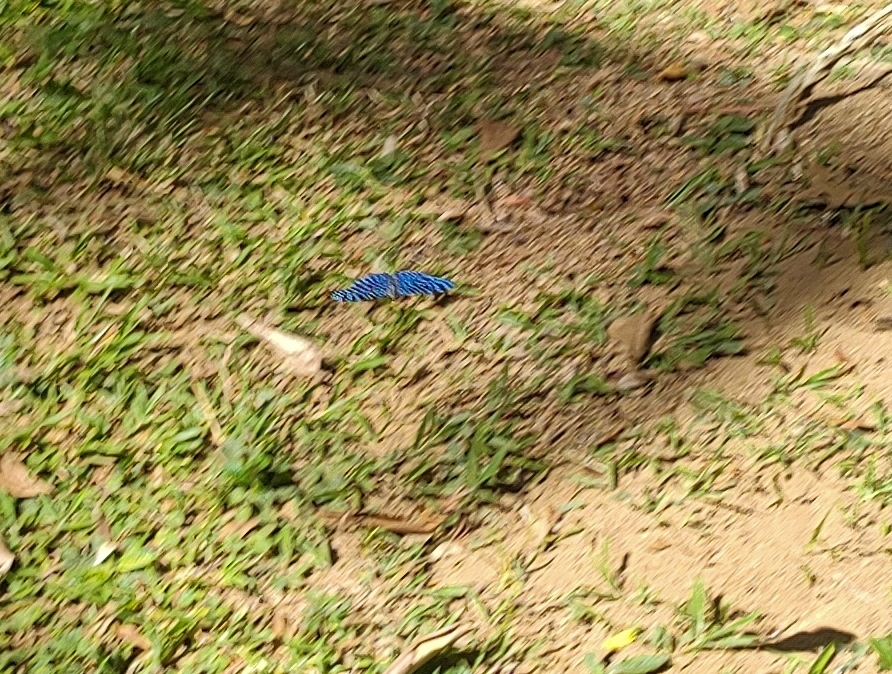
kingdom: Animalia
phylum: Arthropoda
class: Insecta
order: Lepidoptera
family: Nymphalidae
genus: Hamadryas
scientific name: Hamadryas arete
